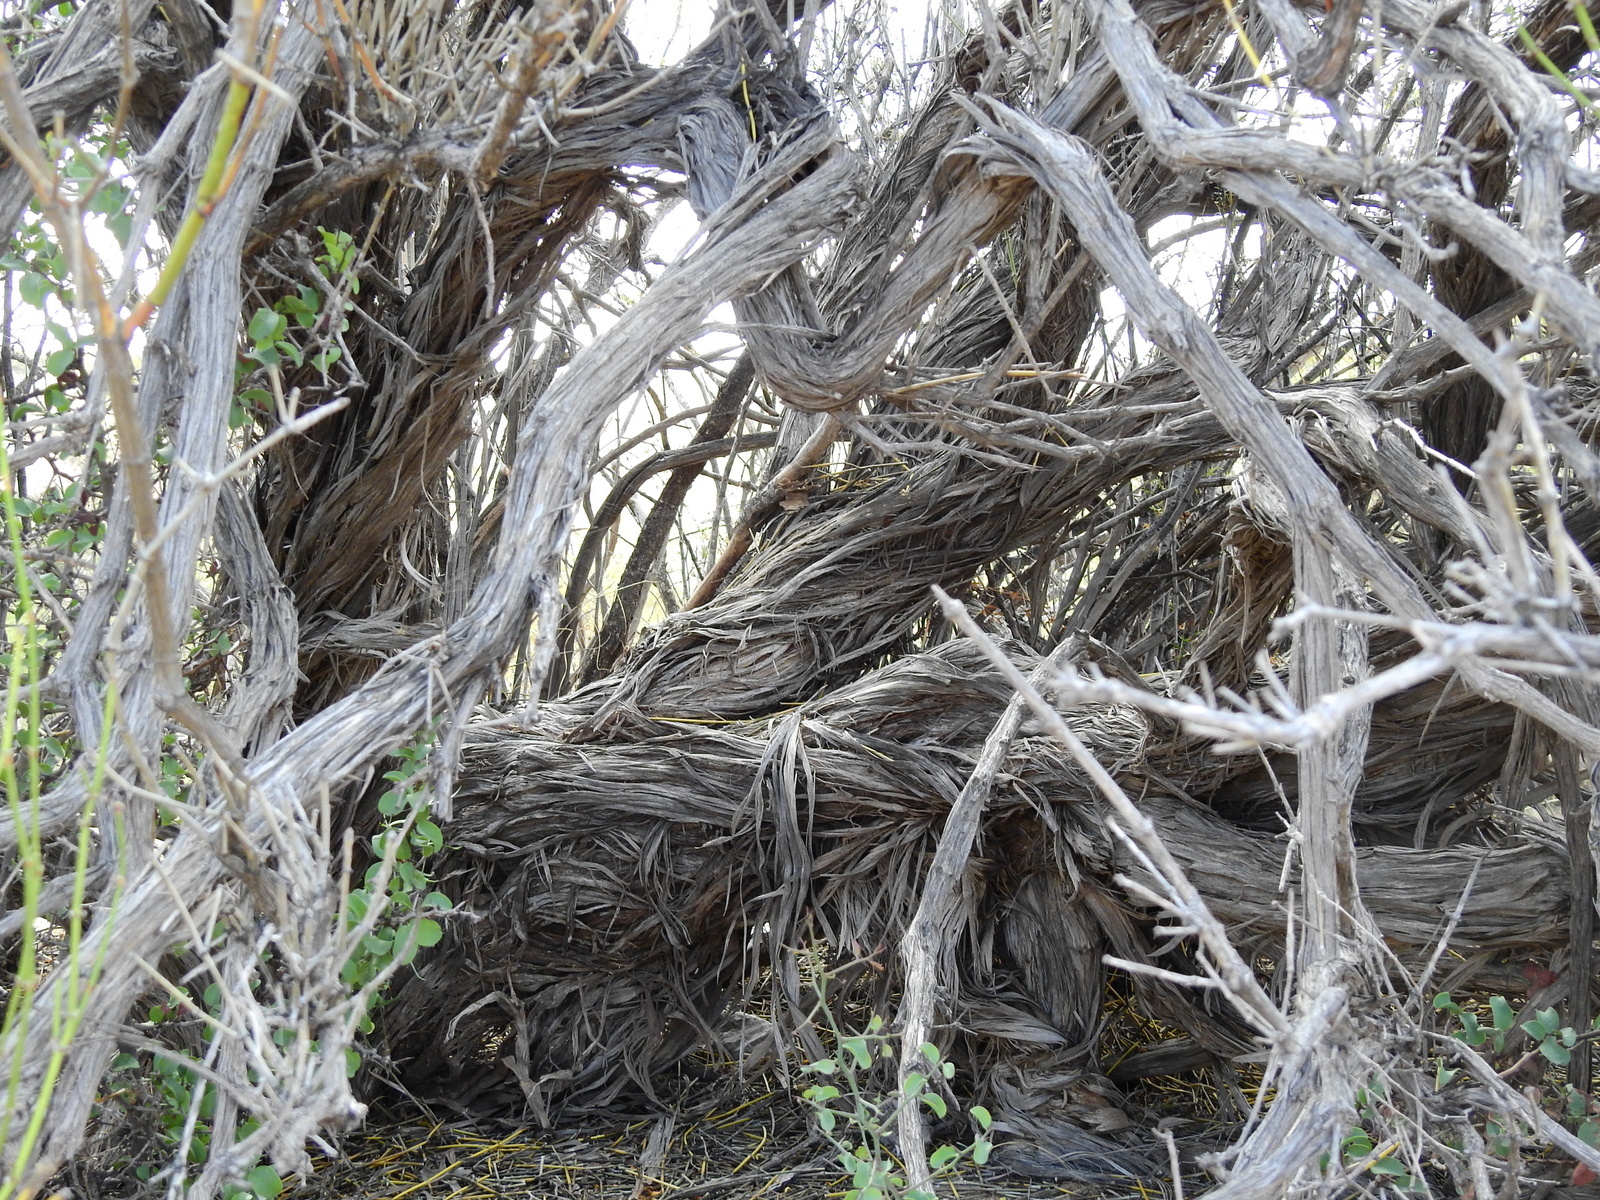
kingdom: Plantae
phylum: Tracheophyta
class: Gnetopsida
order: Ephedrales
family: Ephedraceae
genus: Ephedra
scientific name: Ephedra boelckei
